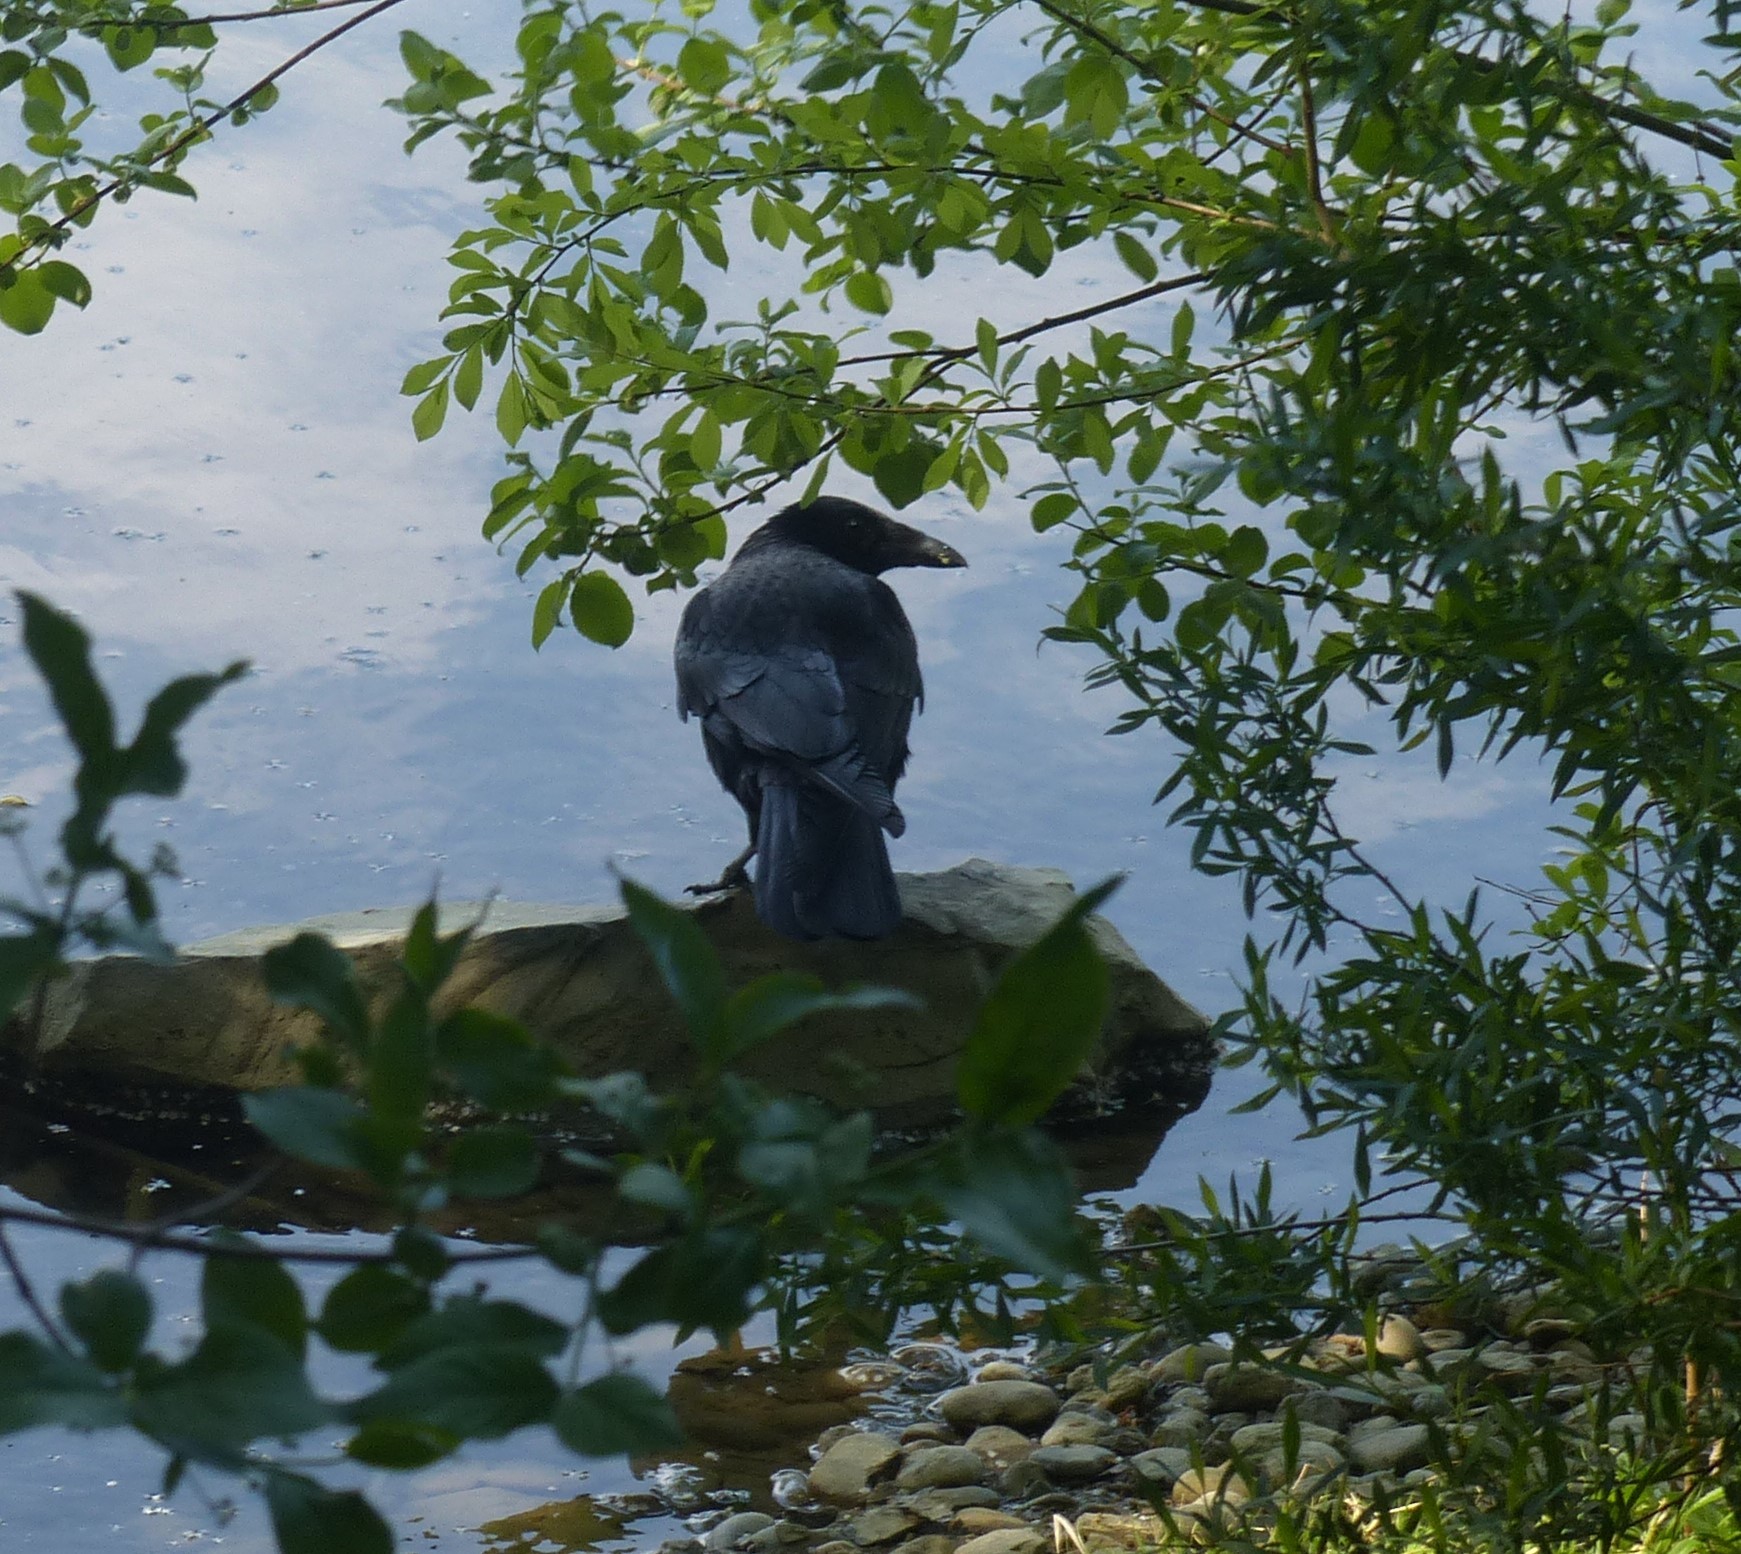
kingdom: Animalia
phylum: Chordata
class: Aves
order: Passeriformes
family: Corvidae
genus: Corvus
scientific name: Corvus corone
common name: Carrion crow
